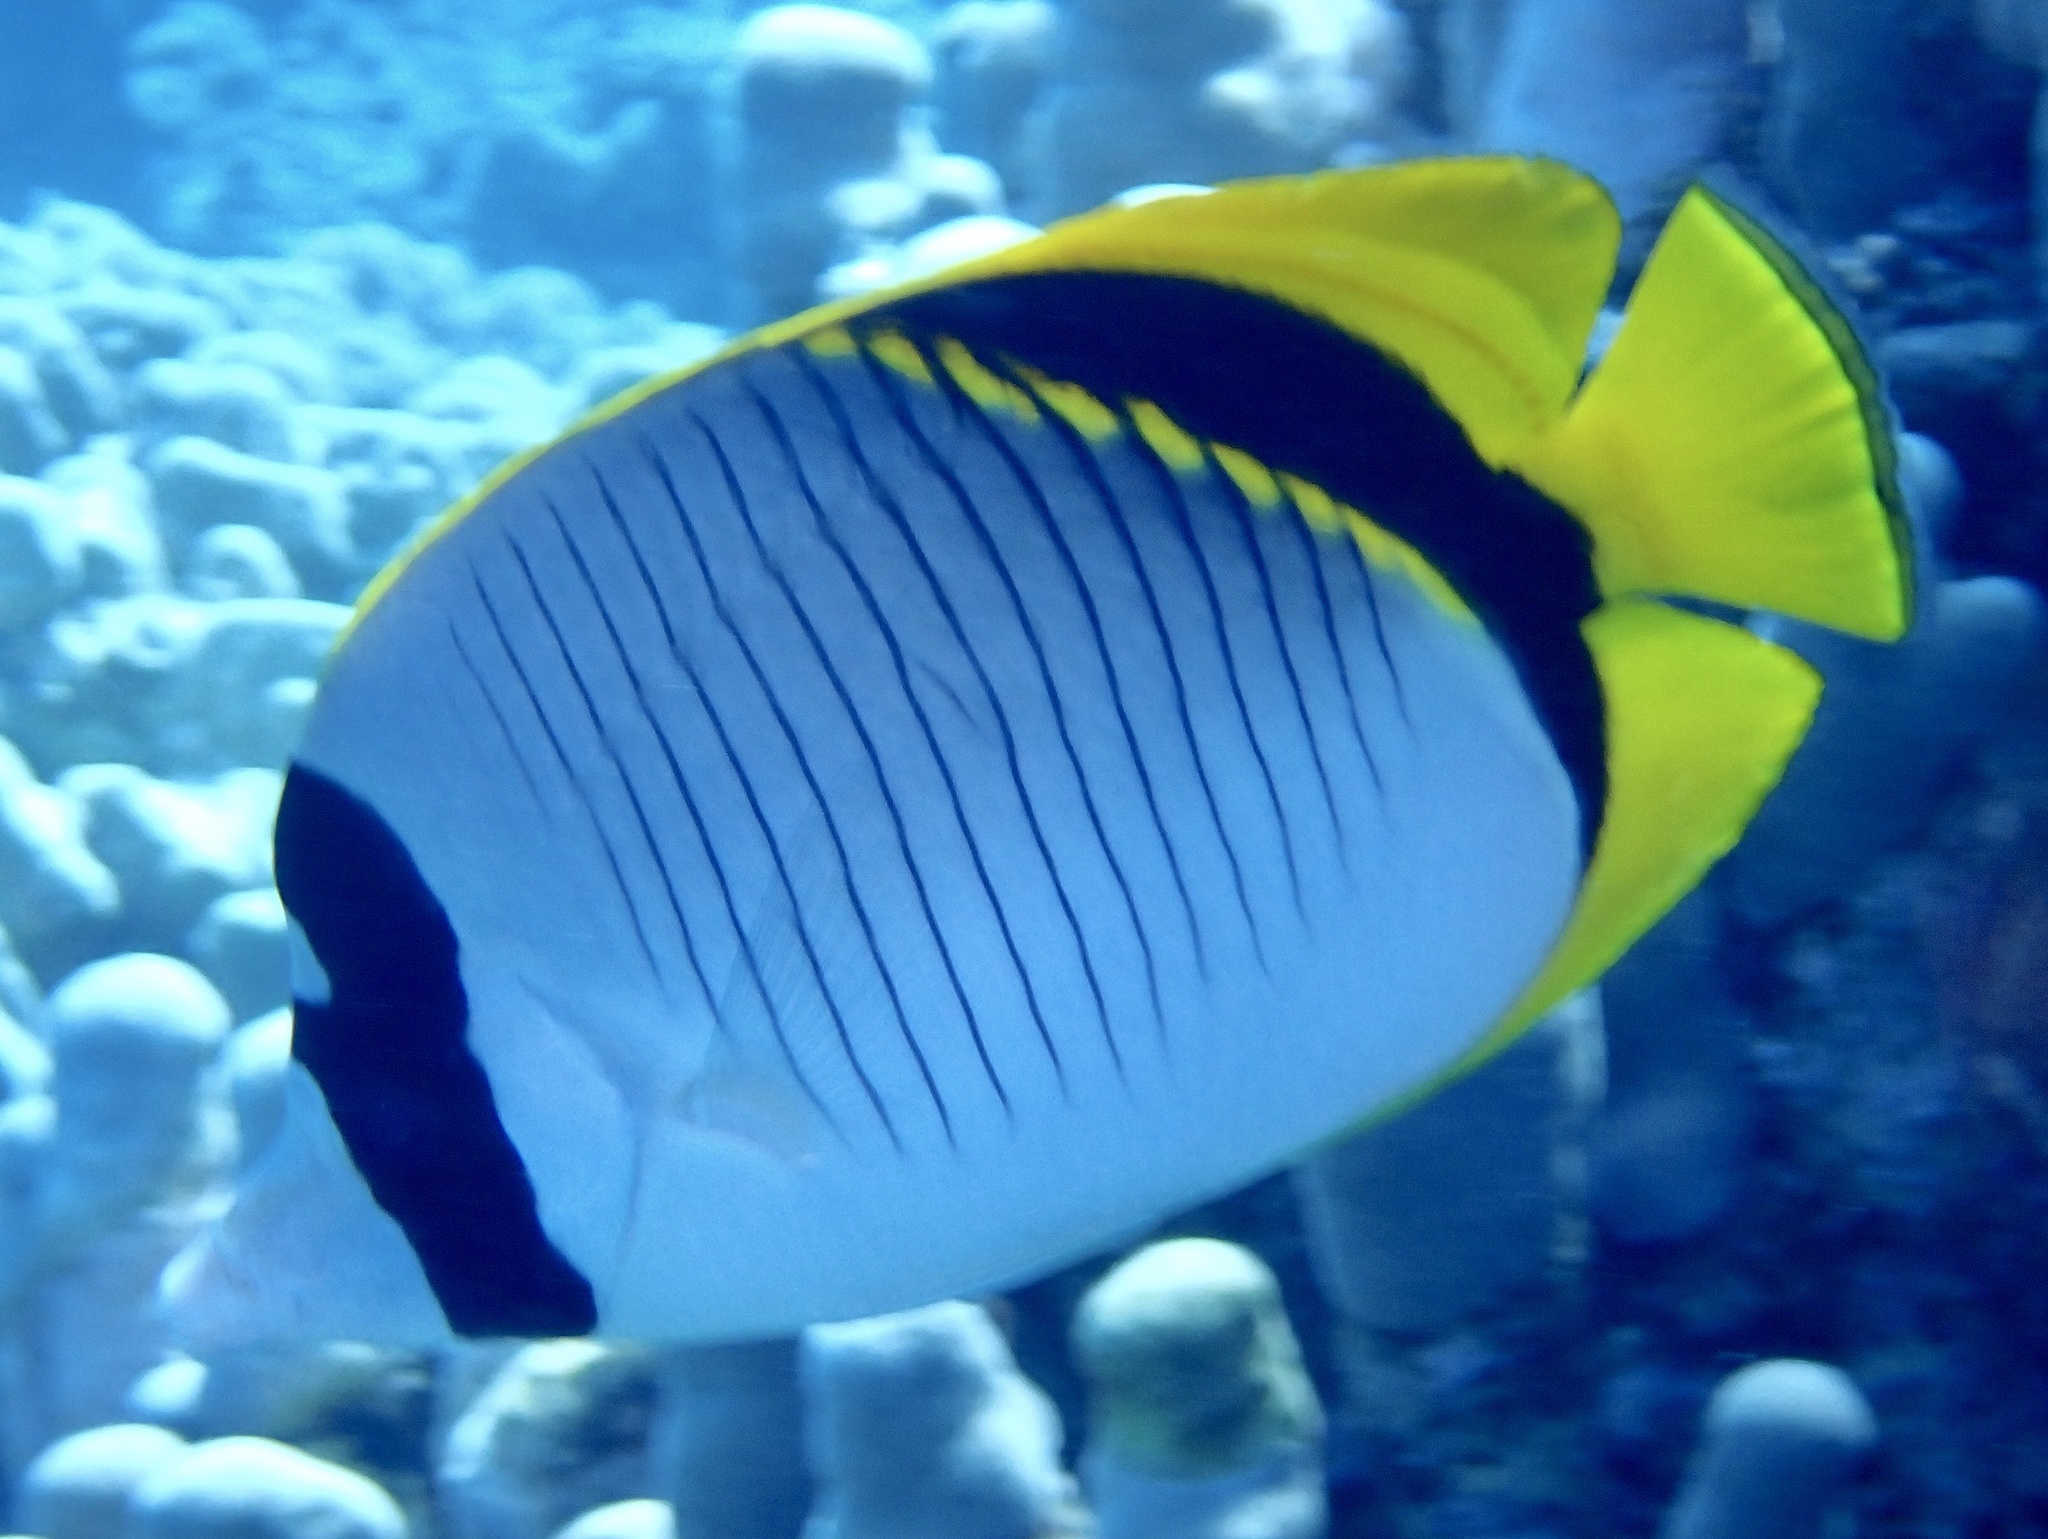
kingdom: Animalia
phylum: Chordata
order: Perciformes
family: Chaetodontidae
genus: Chaetodon
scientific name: Chaetodon lineolatus
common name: Lined butterflyfish
